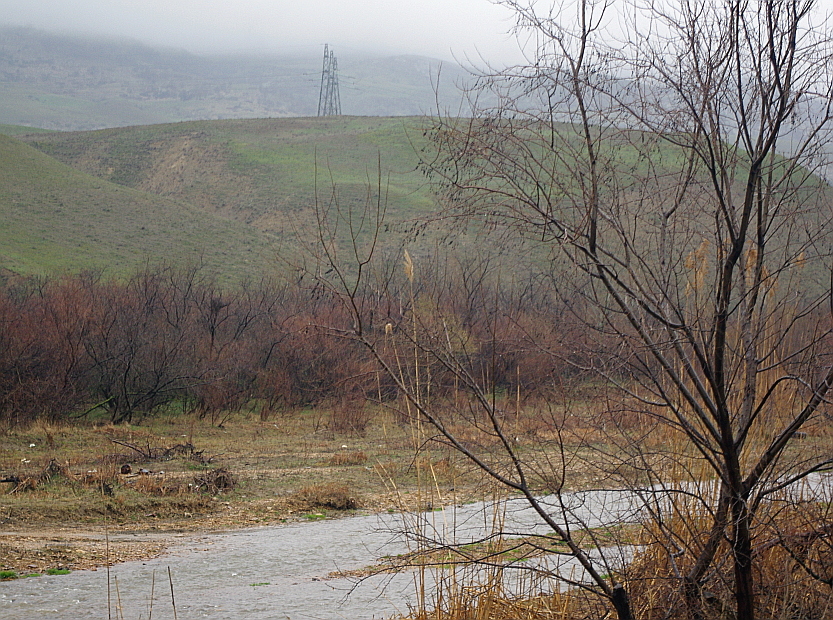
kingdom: Plantae
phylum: Tracheophyta
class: Liliopsida
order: Poales
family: Poaceae
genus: Phragmites
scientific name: Phragmites australis
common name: Common reed
